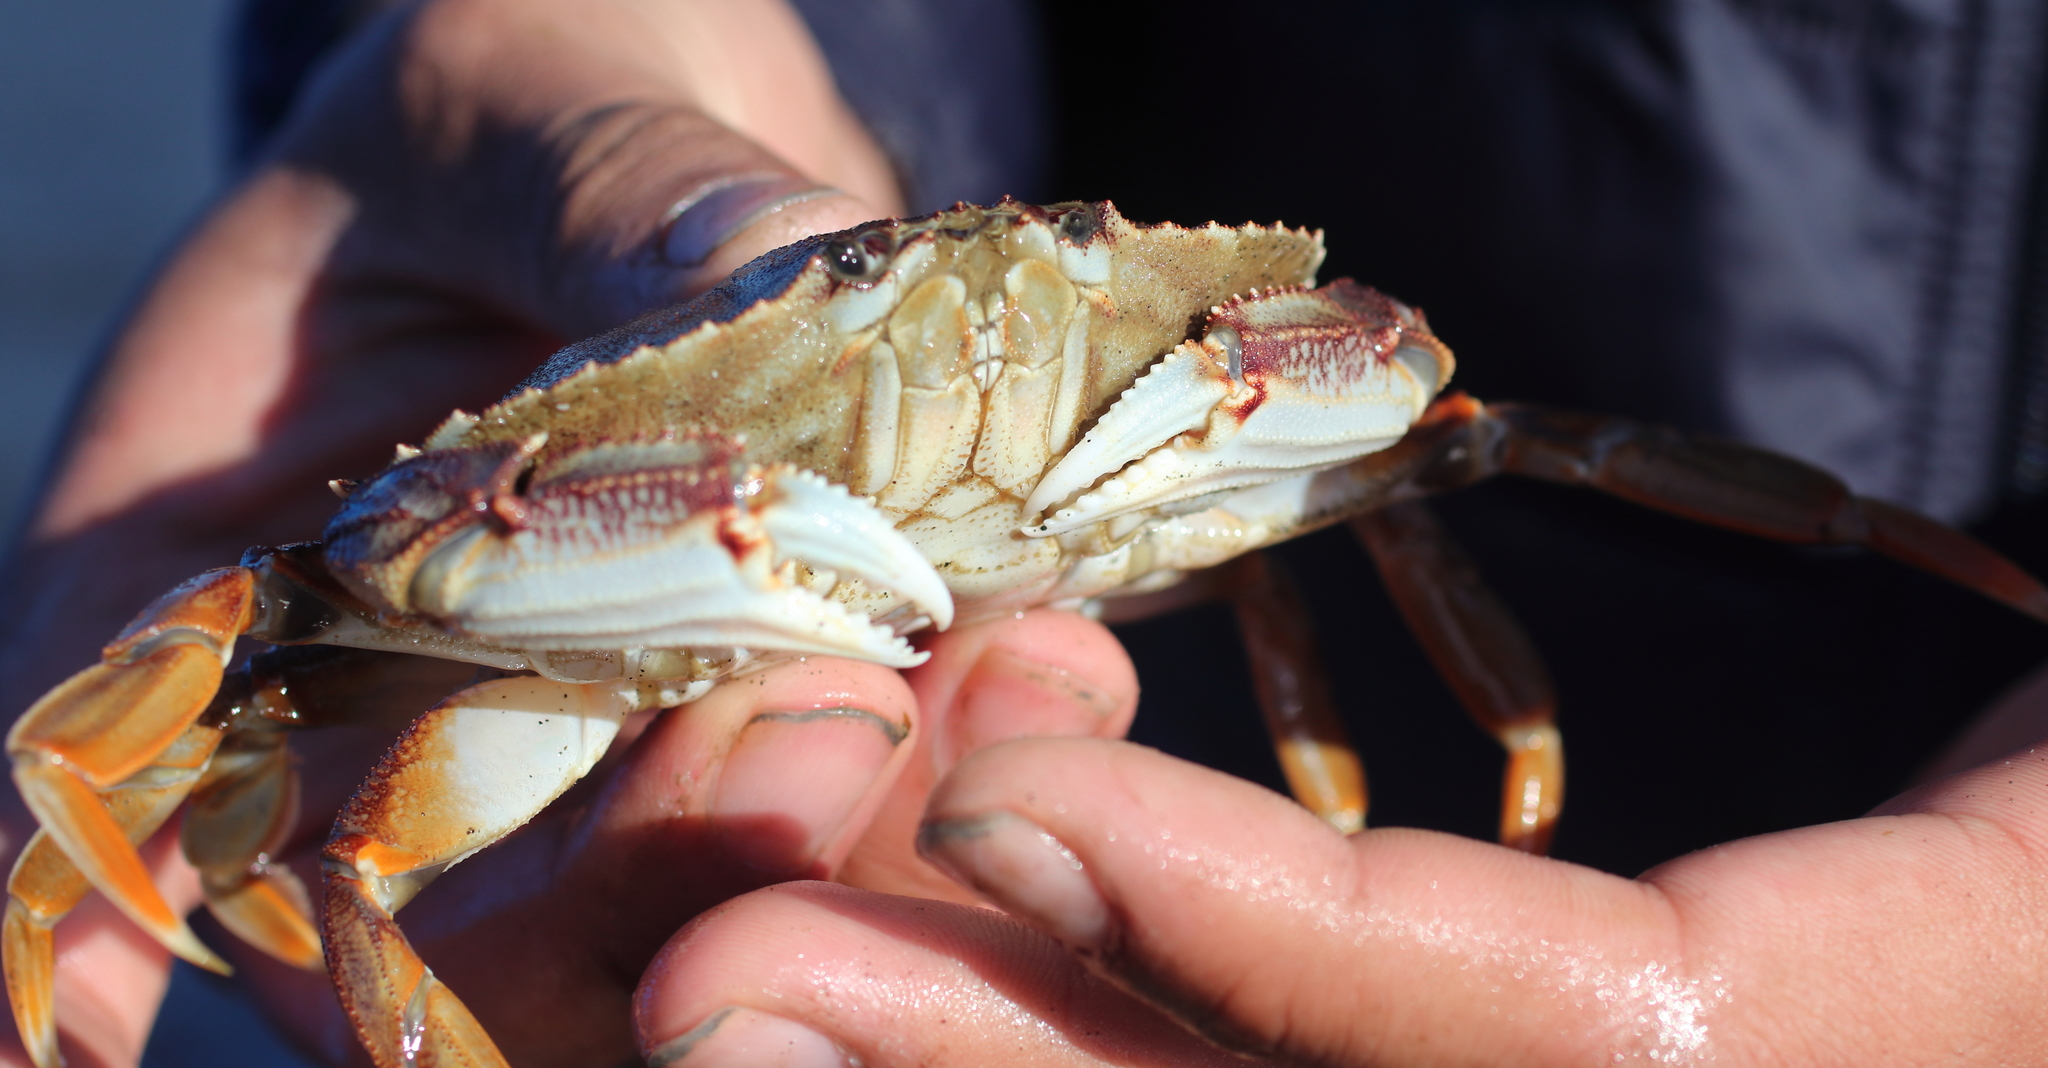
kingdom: Animalia
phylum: Arthropoda
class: Malacostraca
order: Decapoda
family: Cancridae
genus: Metacarcinus
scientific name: Metacarcinus magister
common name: Californian crab
